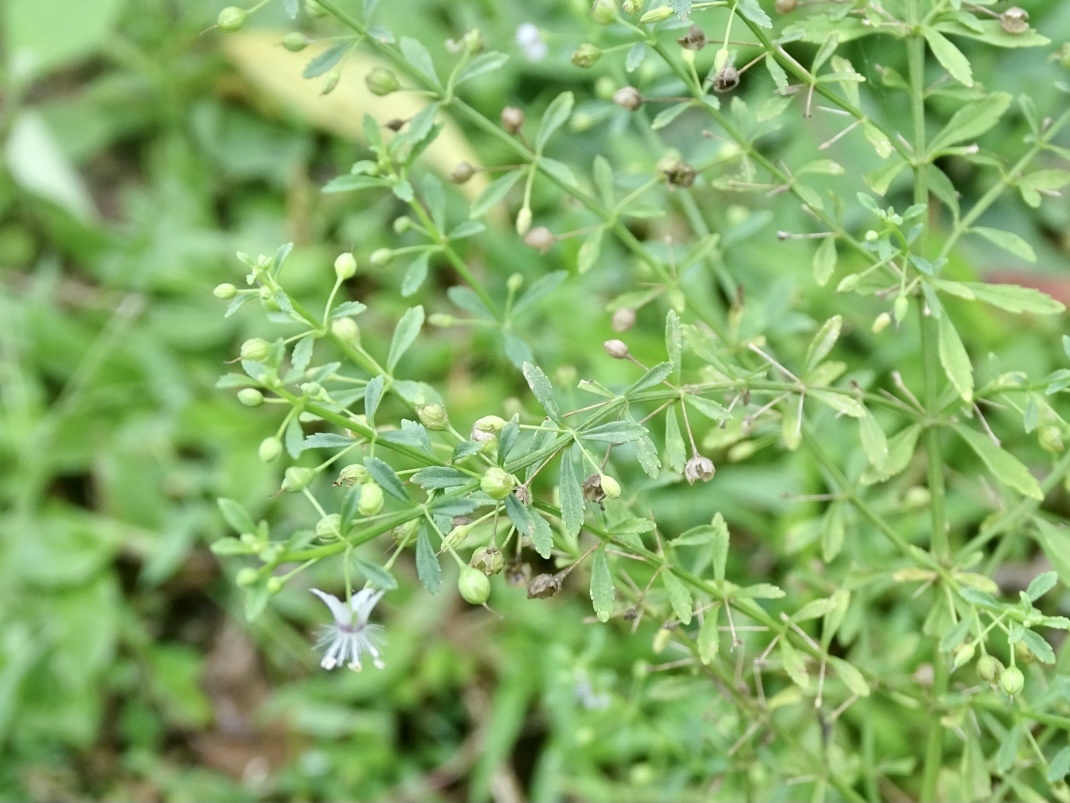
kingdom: Plantae
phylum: Tracheophyta
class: Magnoliopsida
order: Lamiales
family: Plantaginaceae
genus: Scoparia
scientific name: Scoparia dulcis
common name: Scoparia-weed
